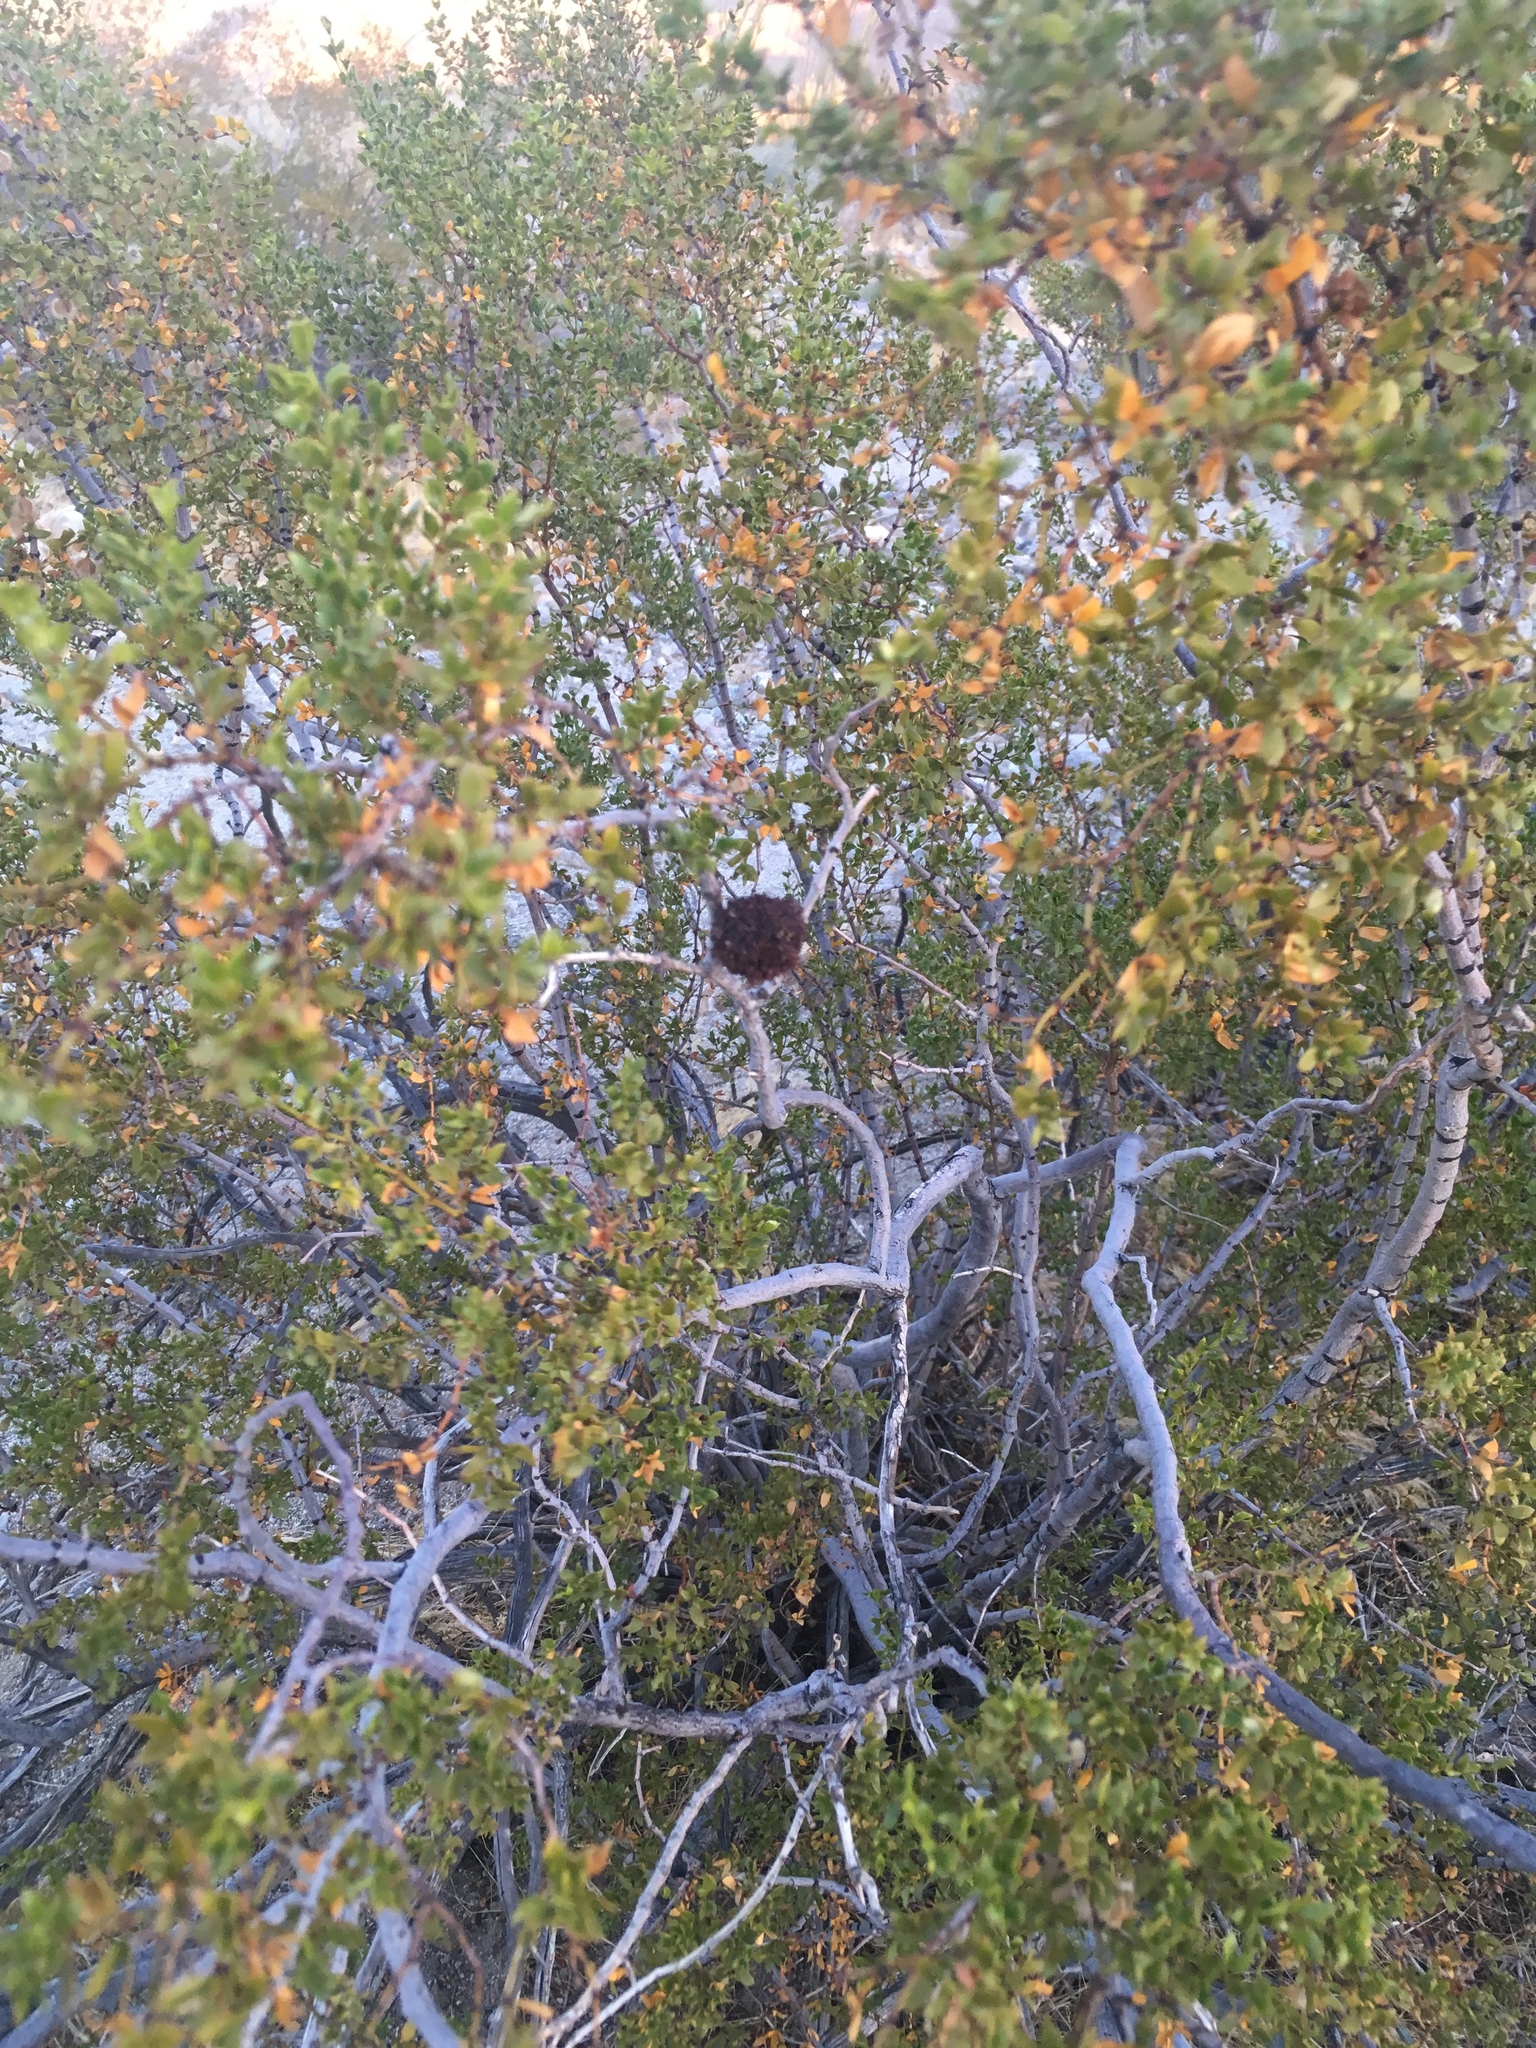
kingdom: Animalia
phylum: Arthropoda
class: Insecta
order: Diptera
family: Cecidomyiidae
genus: Asphondylia
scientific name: Asphondylia auripila
